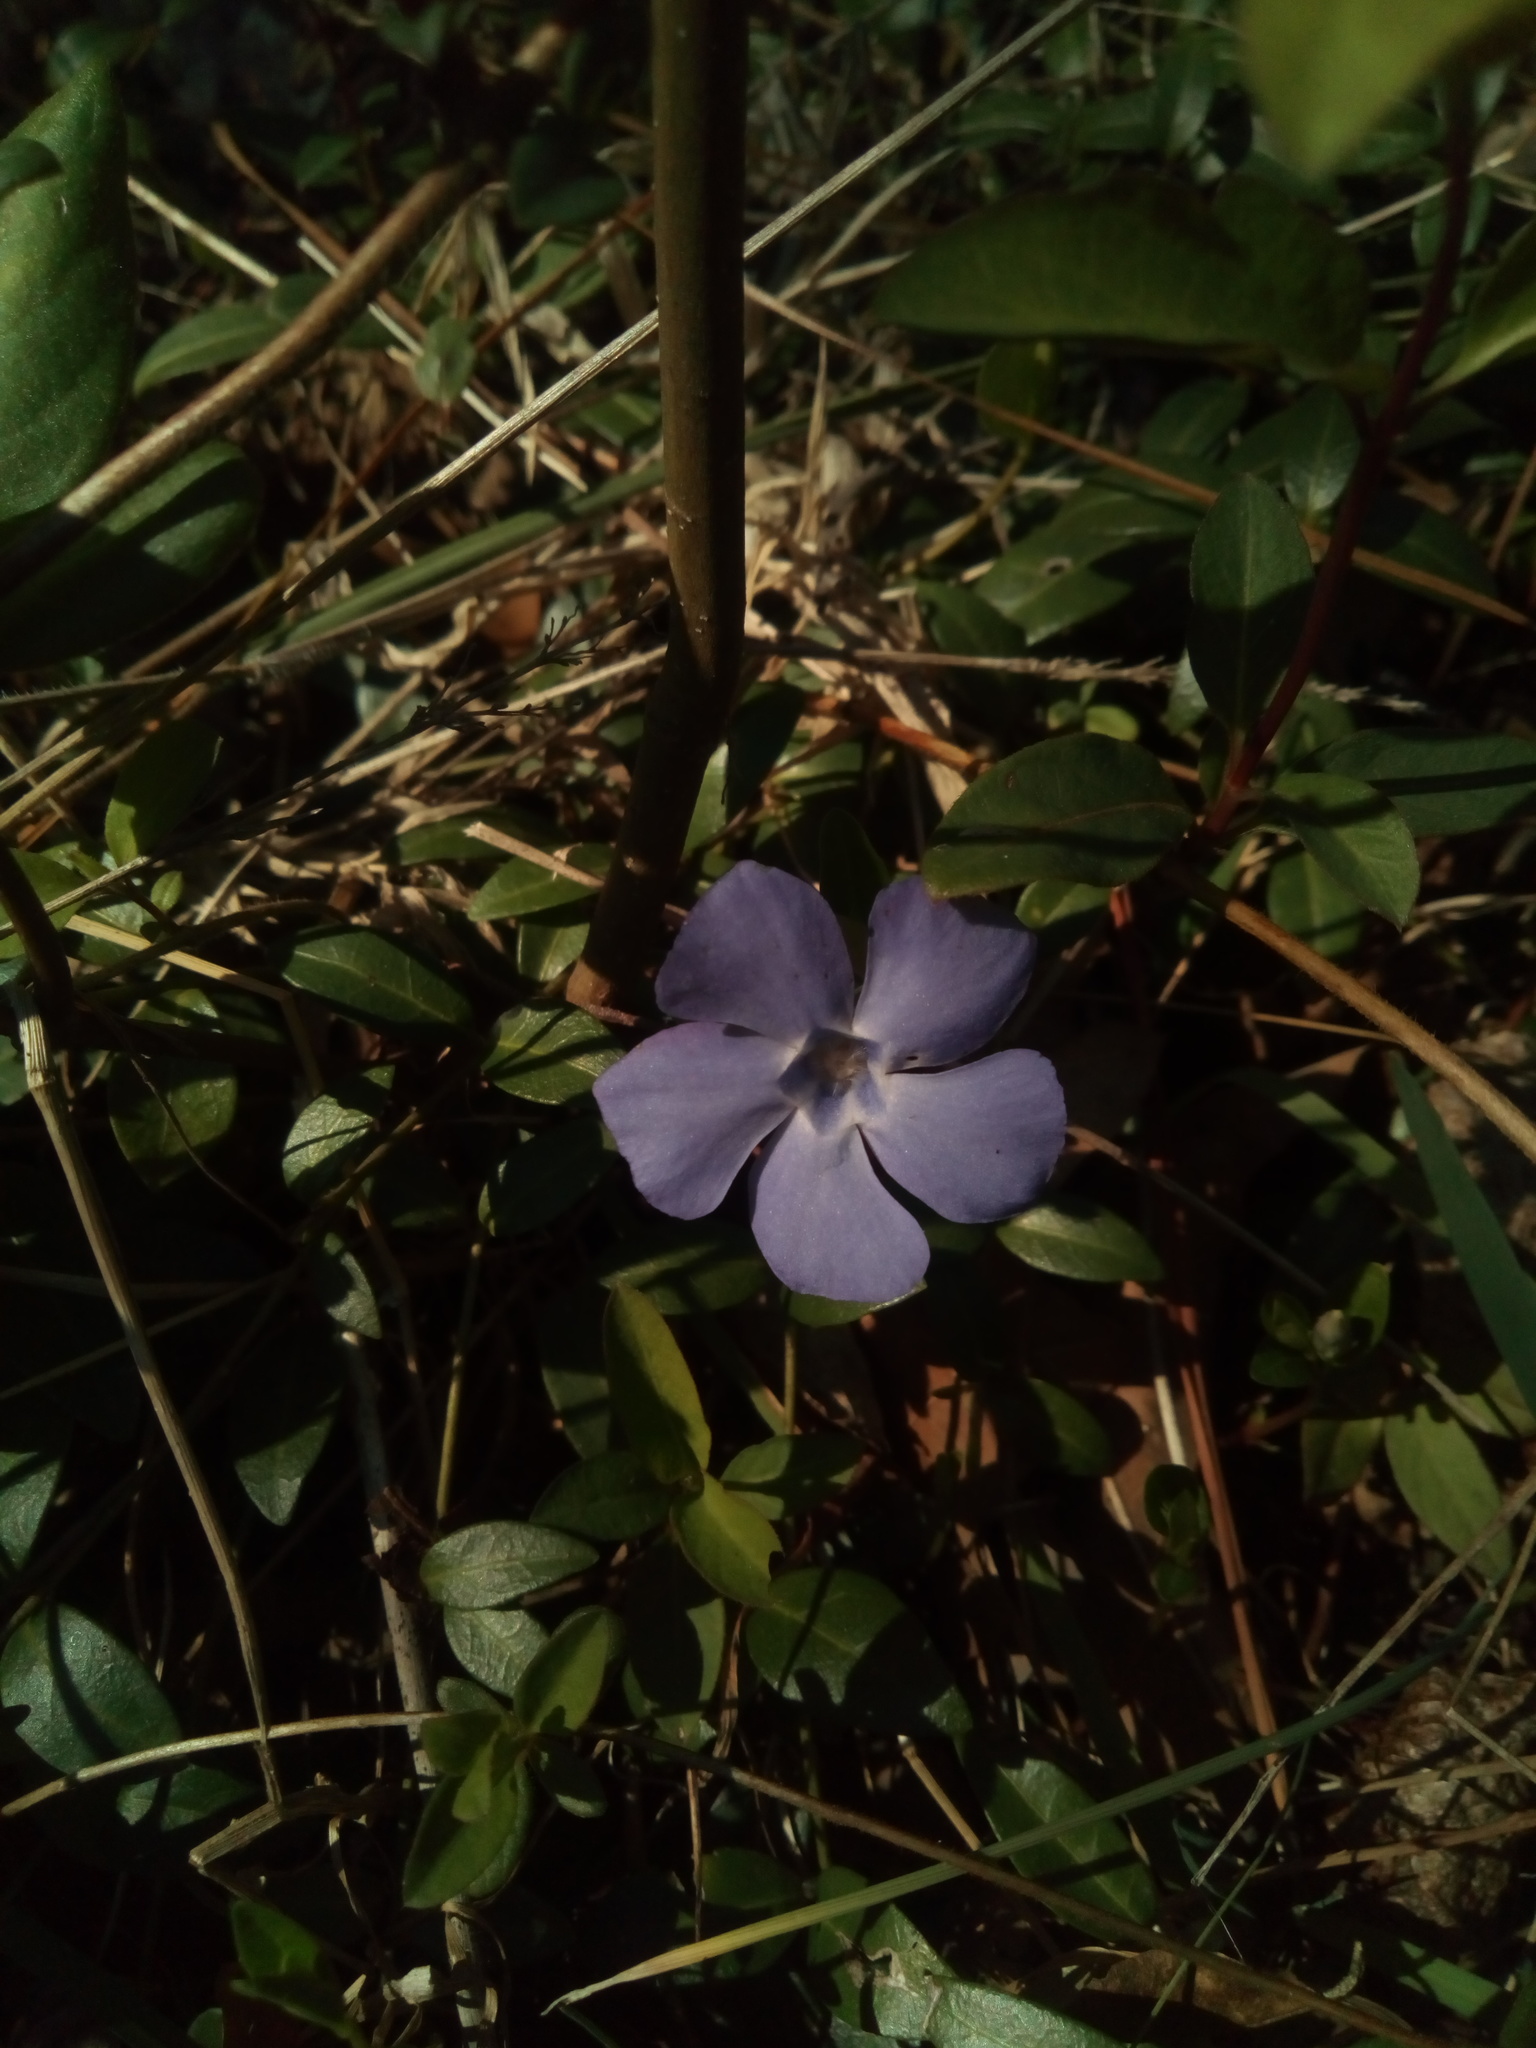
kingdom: Plantae
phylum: Tracheophyta
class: Magnoliopsida
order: Gentianales
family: Apocynaceae
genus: Vinca
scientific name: Vinca minor
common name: Lesser periwinkle
